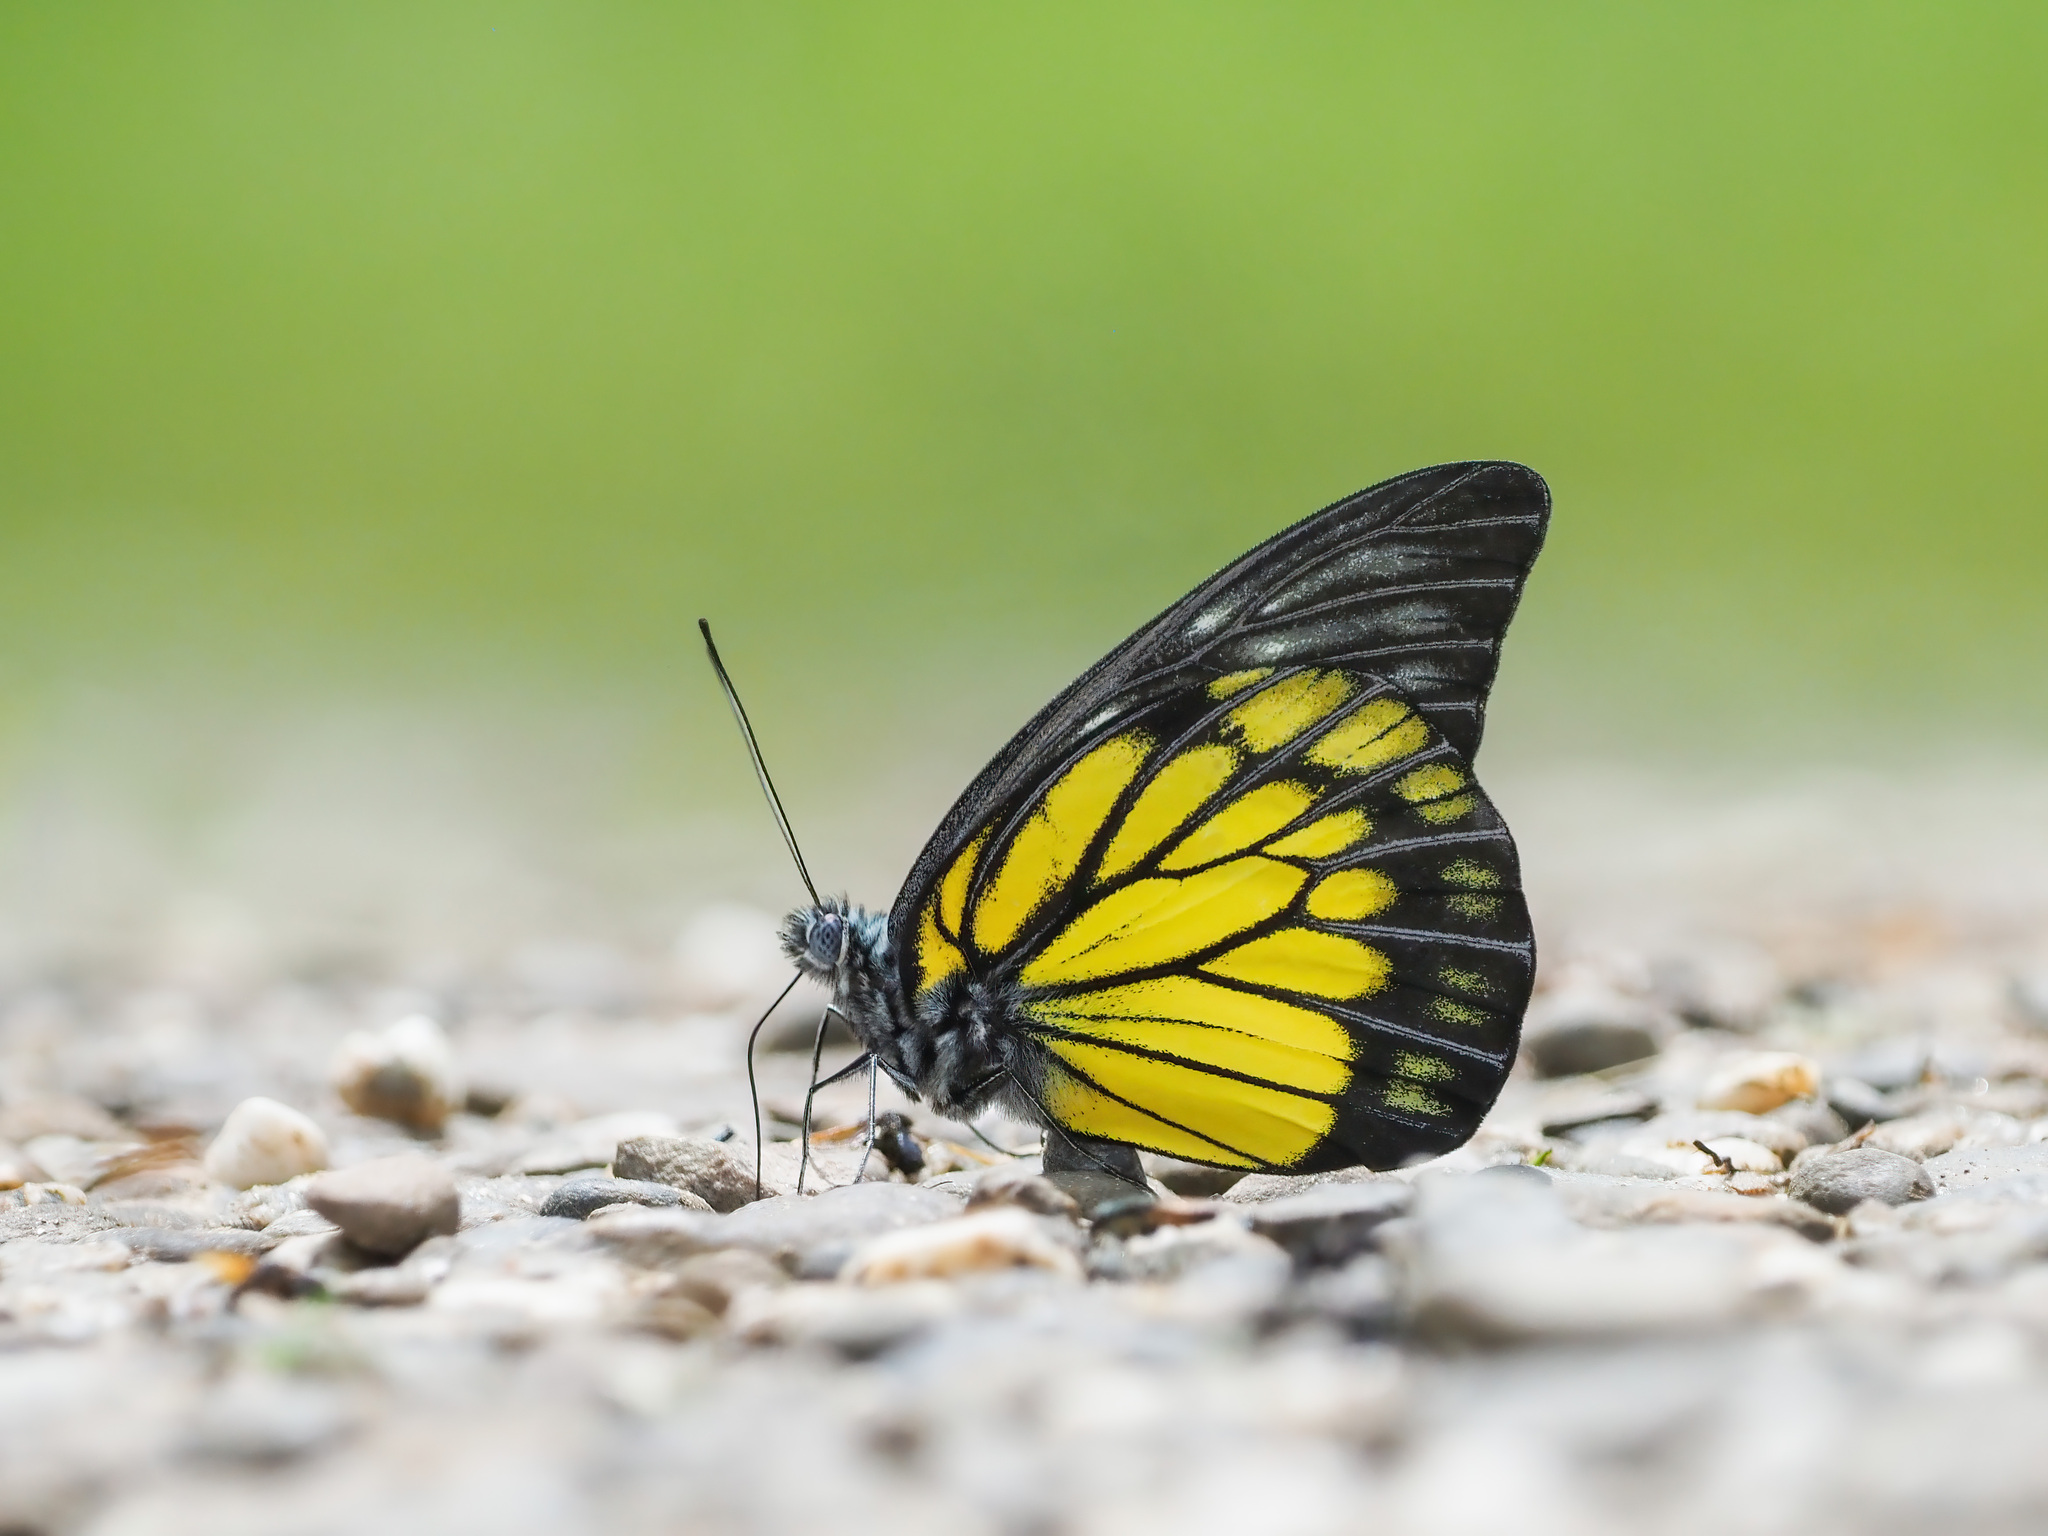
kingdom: Animalia
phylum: Arthropoda
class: Insecta
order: Lepidoptera
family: Pieridae
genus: Prioneris
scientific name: Prioneris cornelia
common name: Bornean sawtooth
